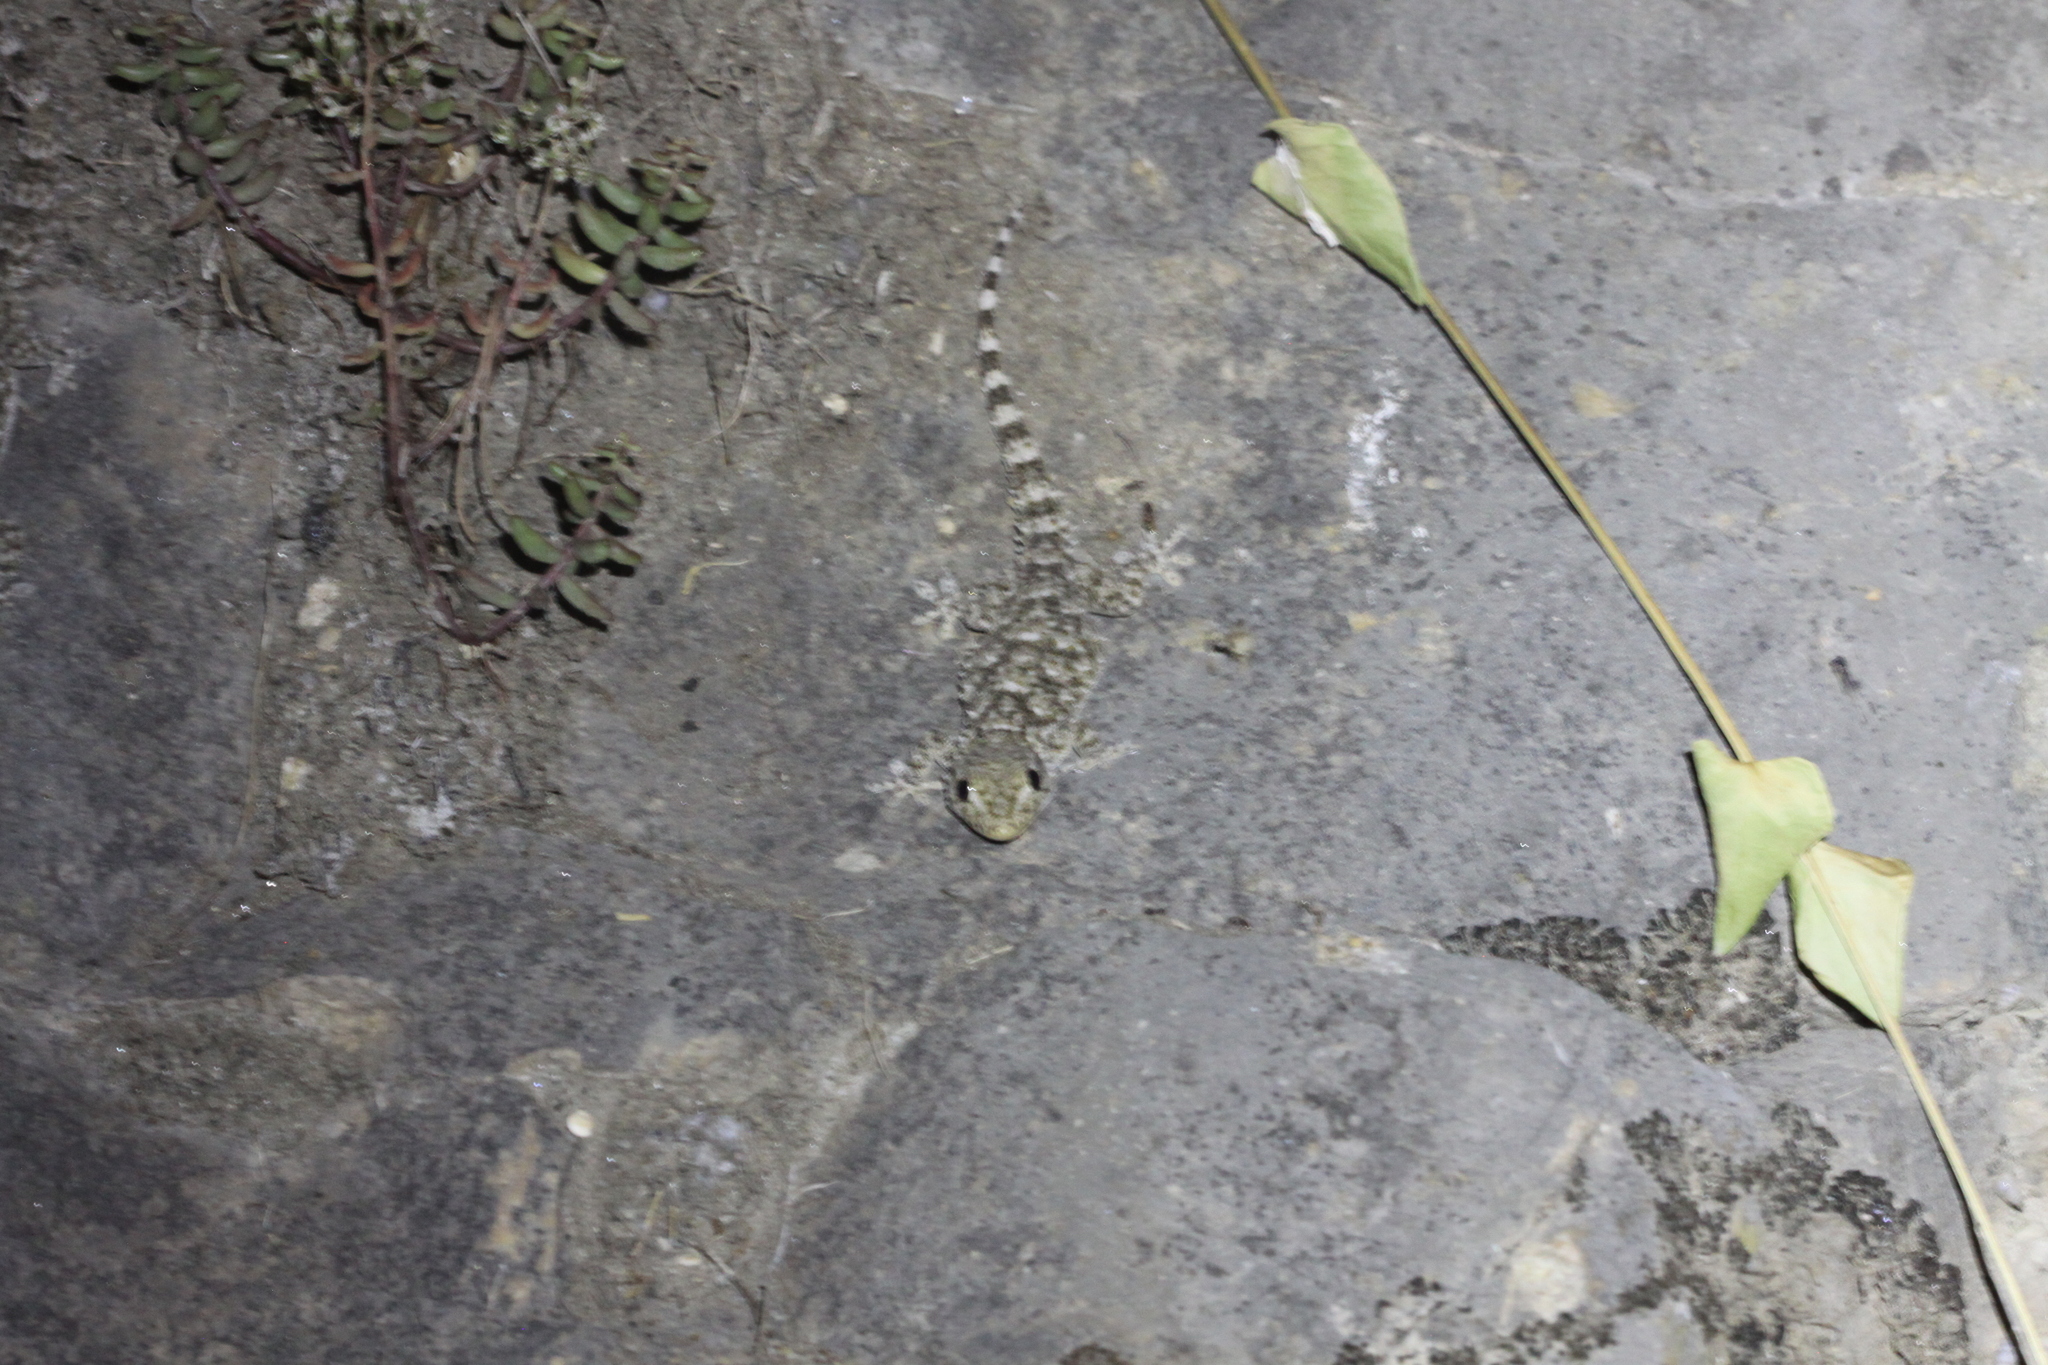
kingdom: Animalia
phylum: Chordata
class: Squamata
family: Phyllodactylidae
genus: Tarentola
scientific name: Tarentola mauritanica
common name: Moorish gecko
